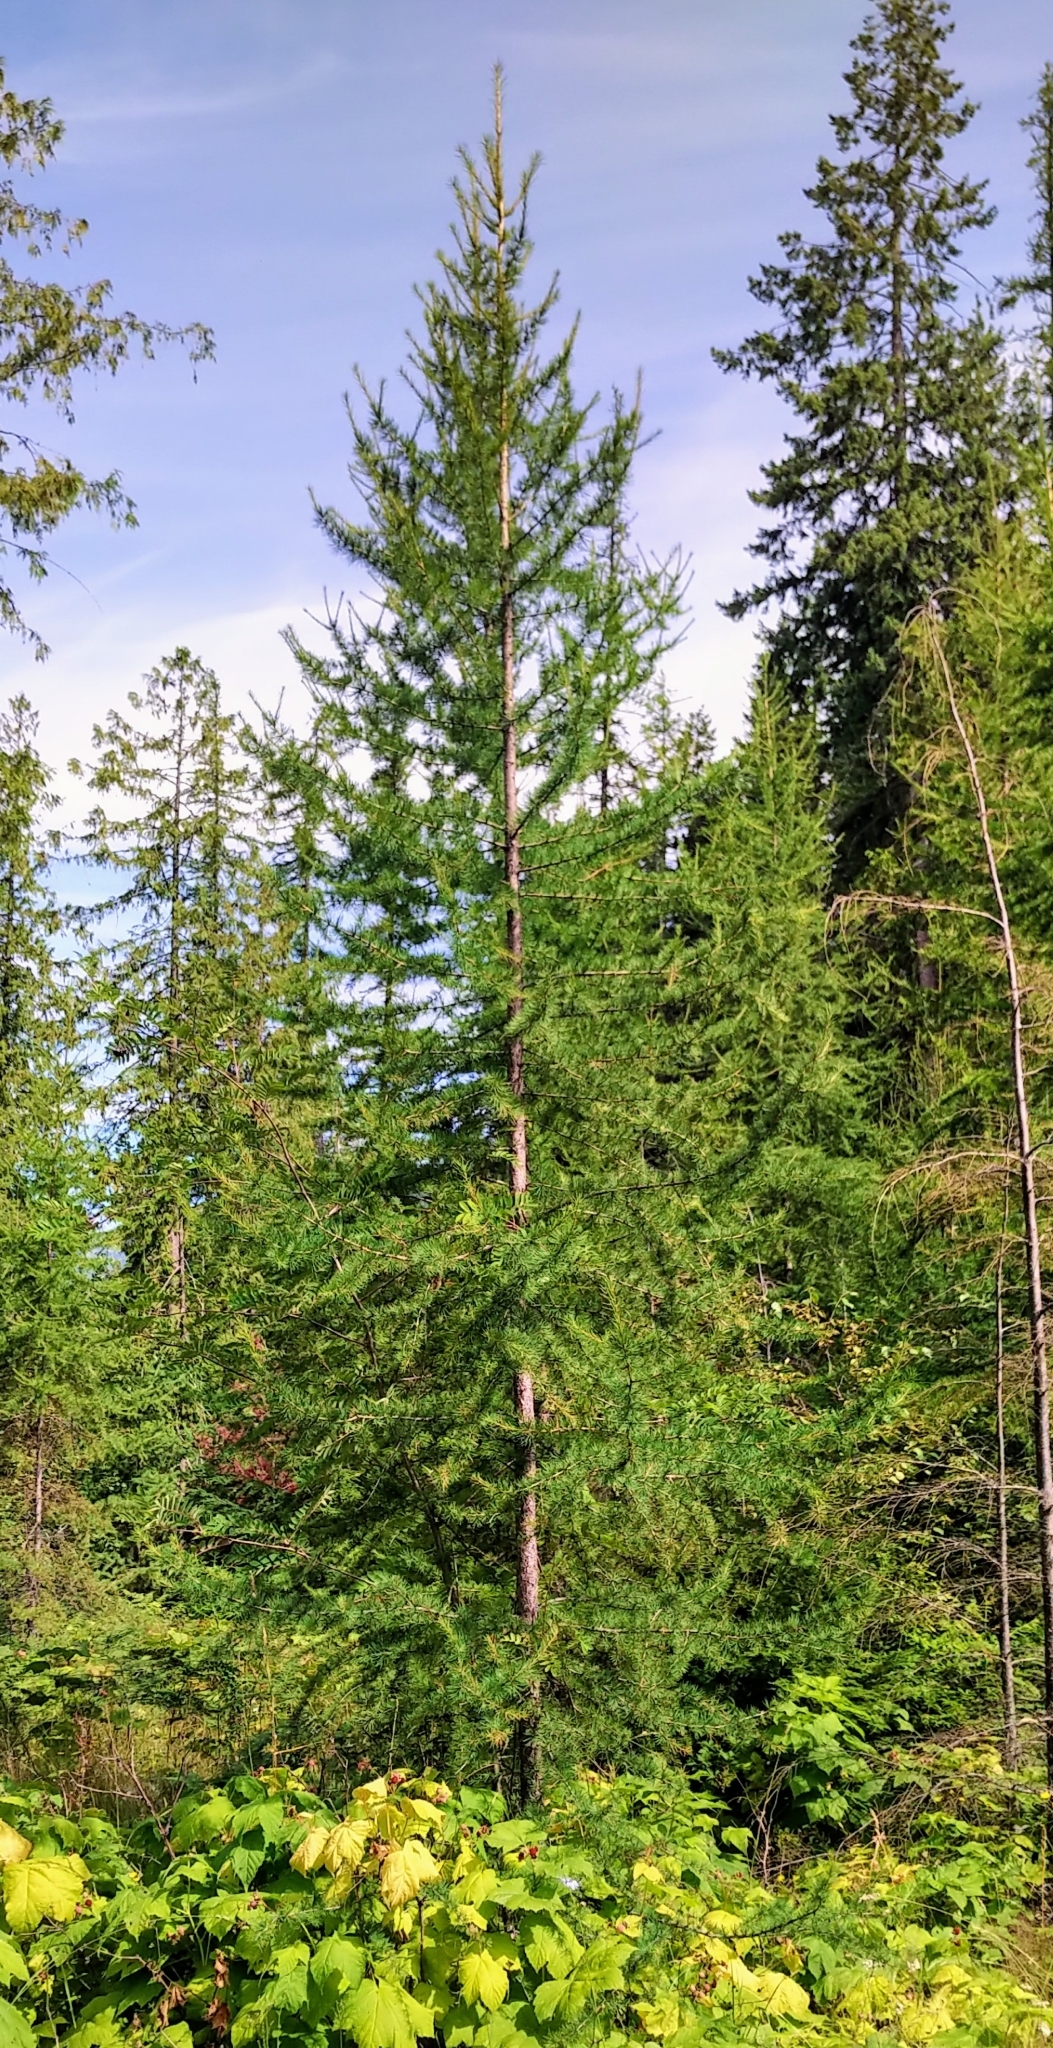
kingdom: Plantae
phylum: Tracheophyta
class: Pinopsida
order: Pinales
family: Pinaceae
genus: Larix
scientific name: Larix occidentalis
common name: Western larch
